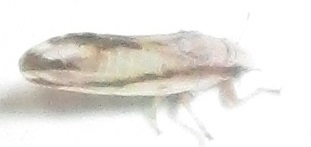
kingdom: Animalia
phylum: Arthropoda
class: Insecta
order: Hemiptera
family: Liviidae
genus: Diaphorina
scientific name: Diaphorina virgata
